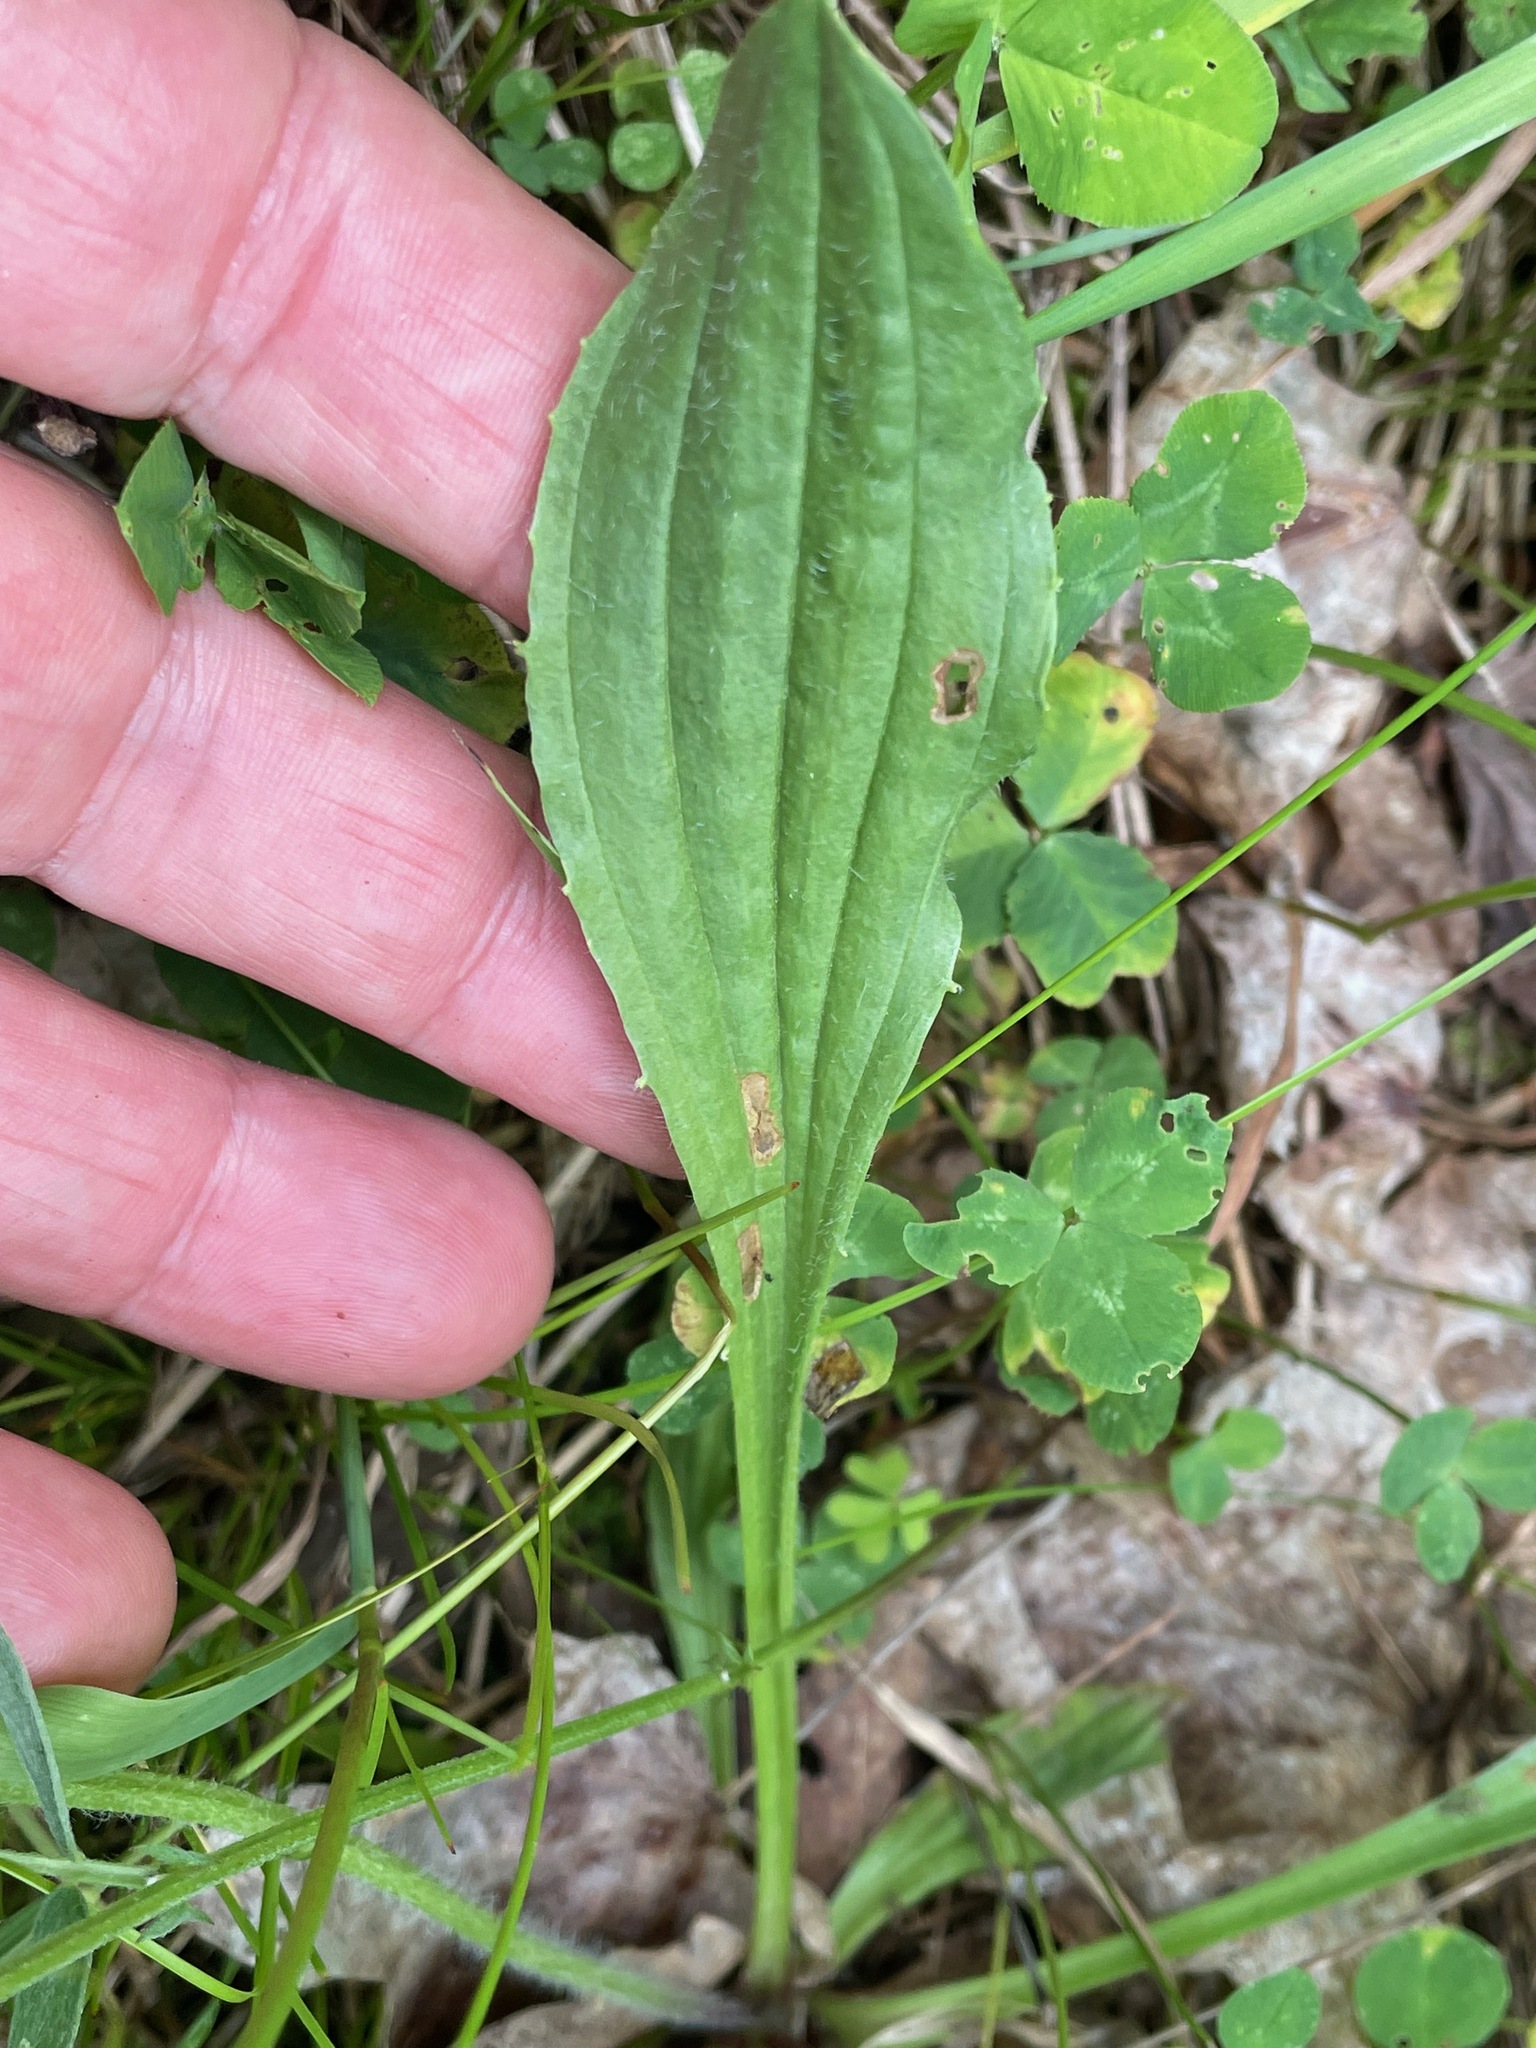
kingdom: Plantae
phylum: Tracheophyta
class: Magnoliopsida
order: Lamiales
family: Plantaginaceae
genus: Plantago
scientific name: Plantago lanceolata
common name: Ribwort plantain
